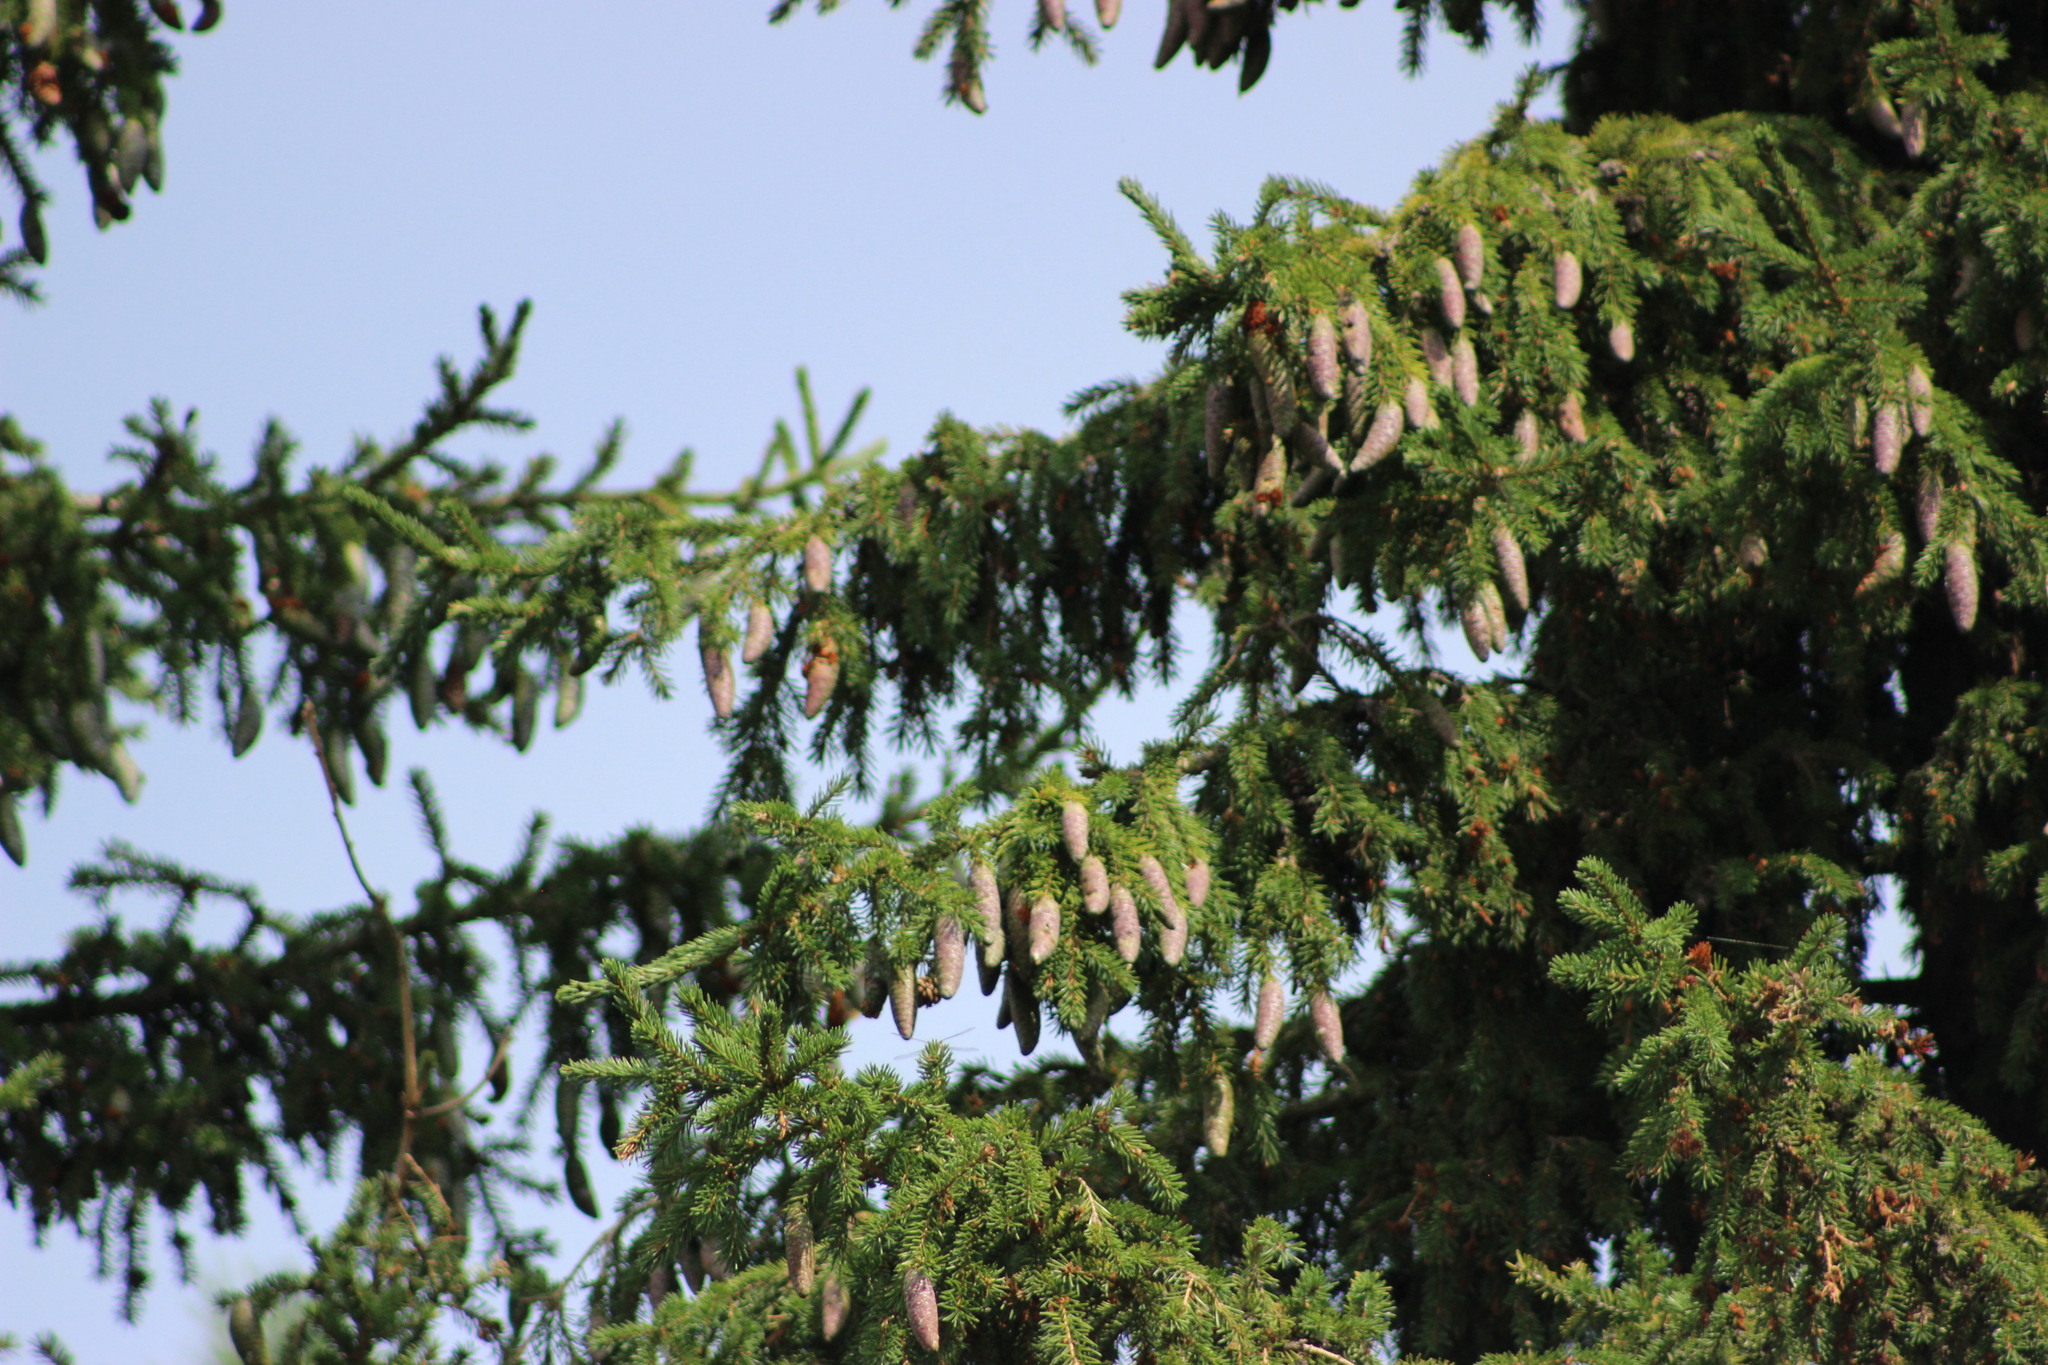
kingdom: Plantae
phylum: Tracheophyta
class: Pinopsida
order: Pinales
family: Pinaceae
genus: Picea
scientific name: Picea obovata
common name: Siberian spruce
